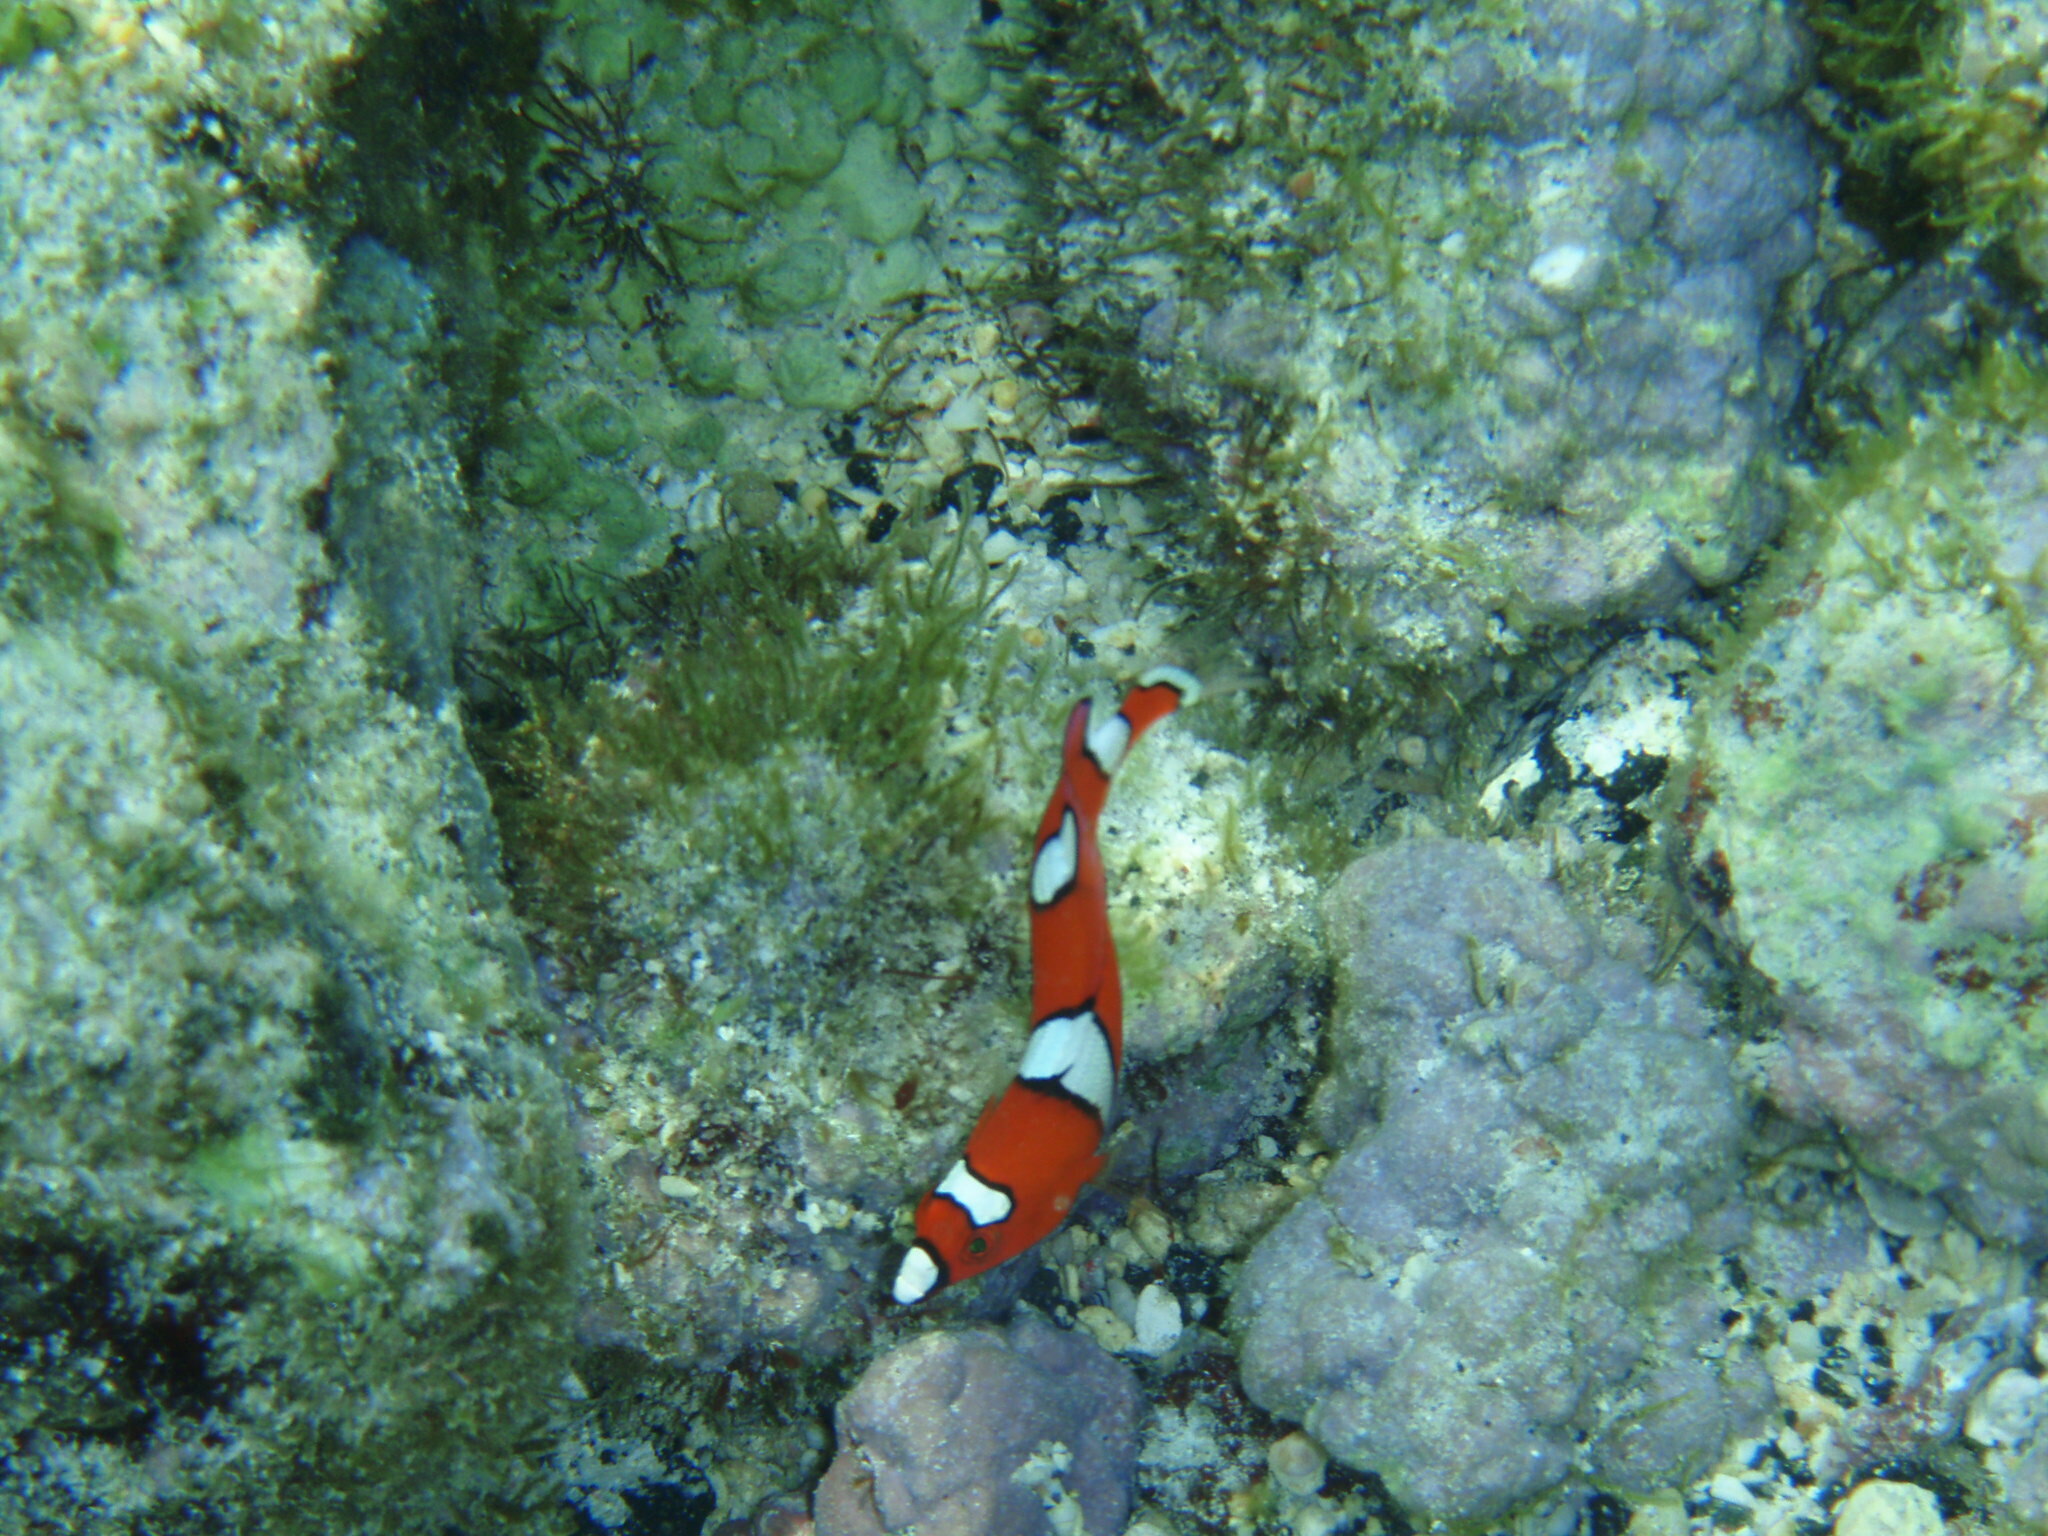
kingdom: Animalia
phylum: Chordata
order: Perciformes
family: Labridae
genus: Coris
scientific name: Coris gaimard
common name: Yellowtail coris
